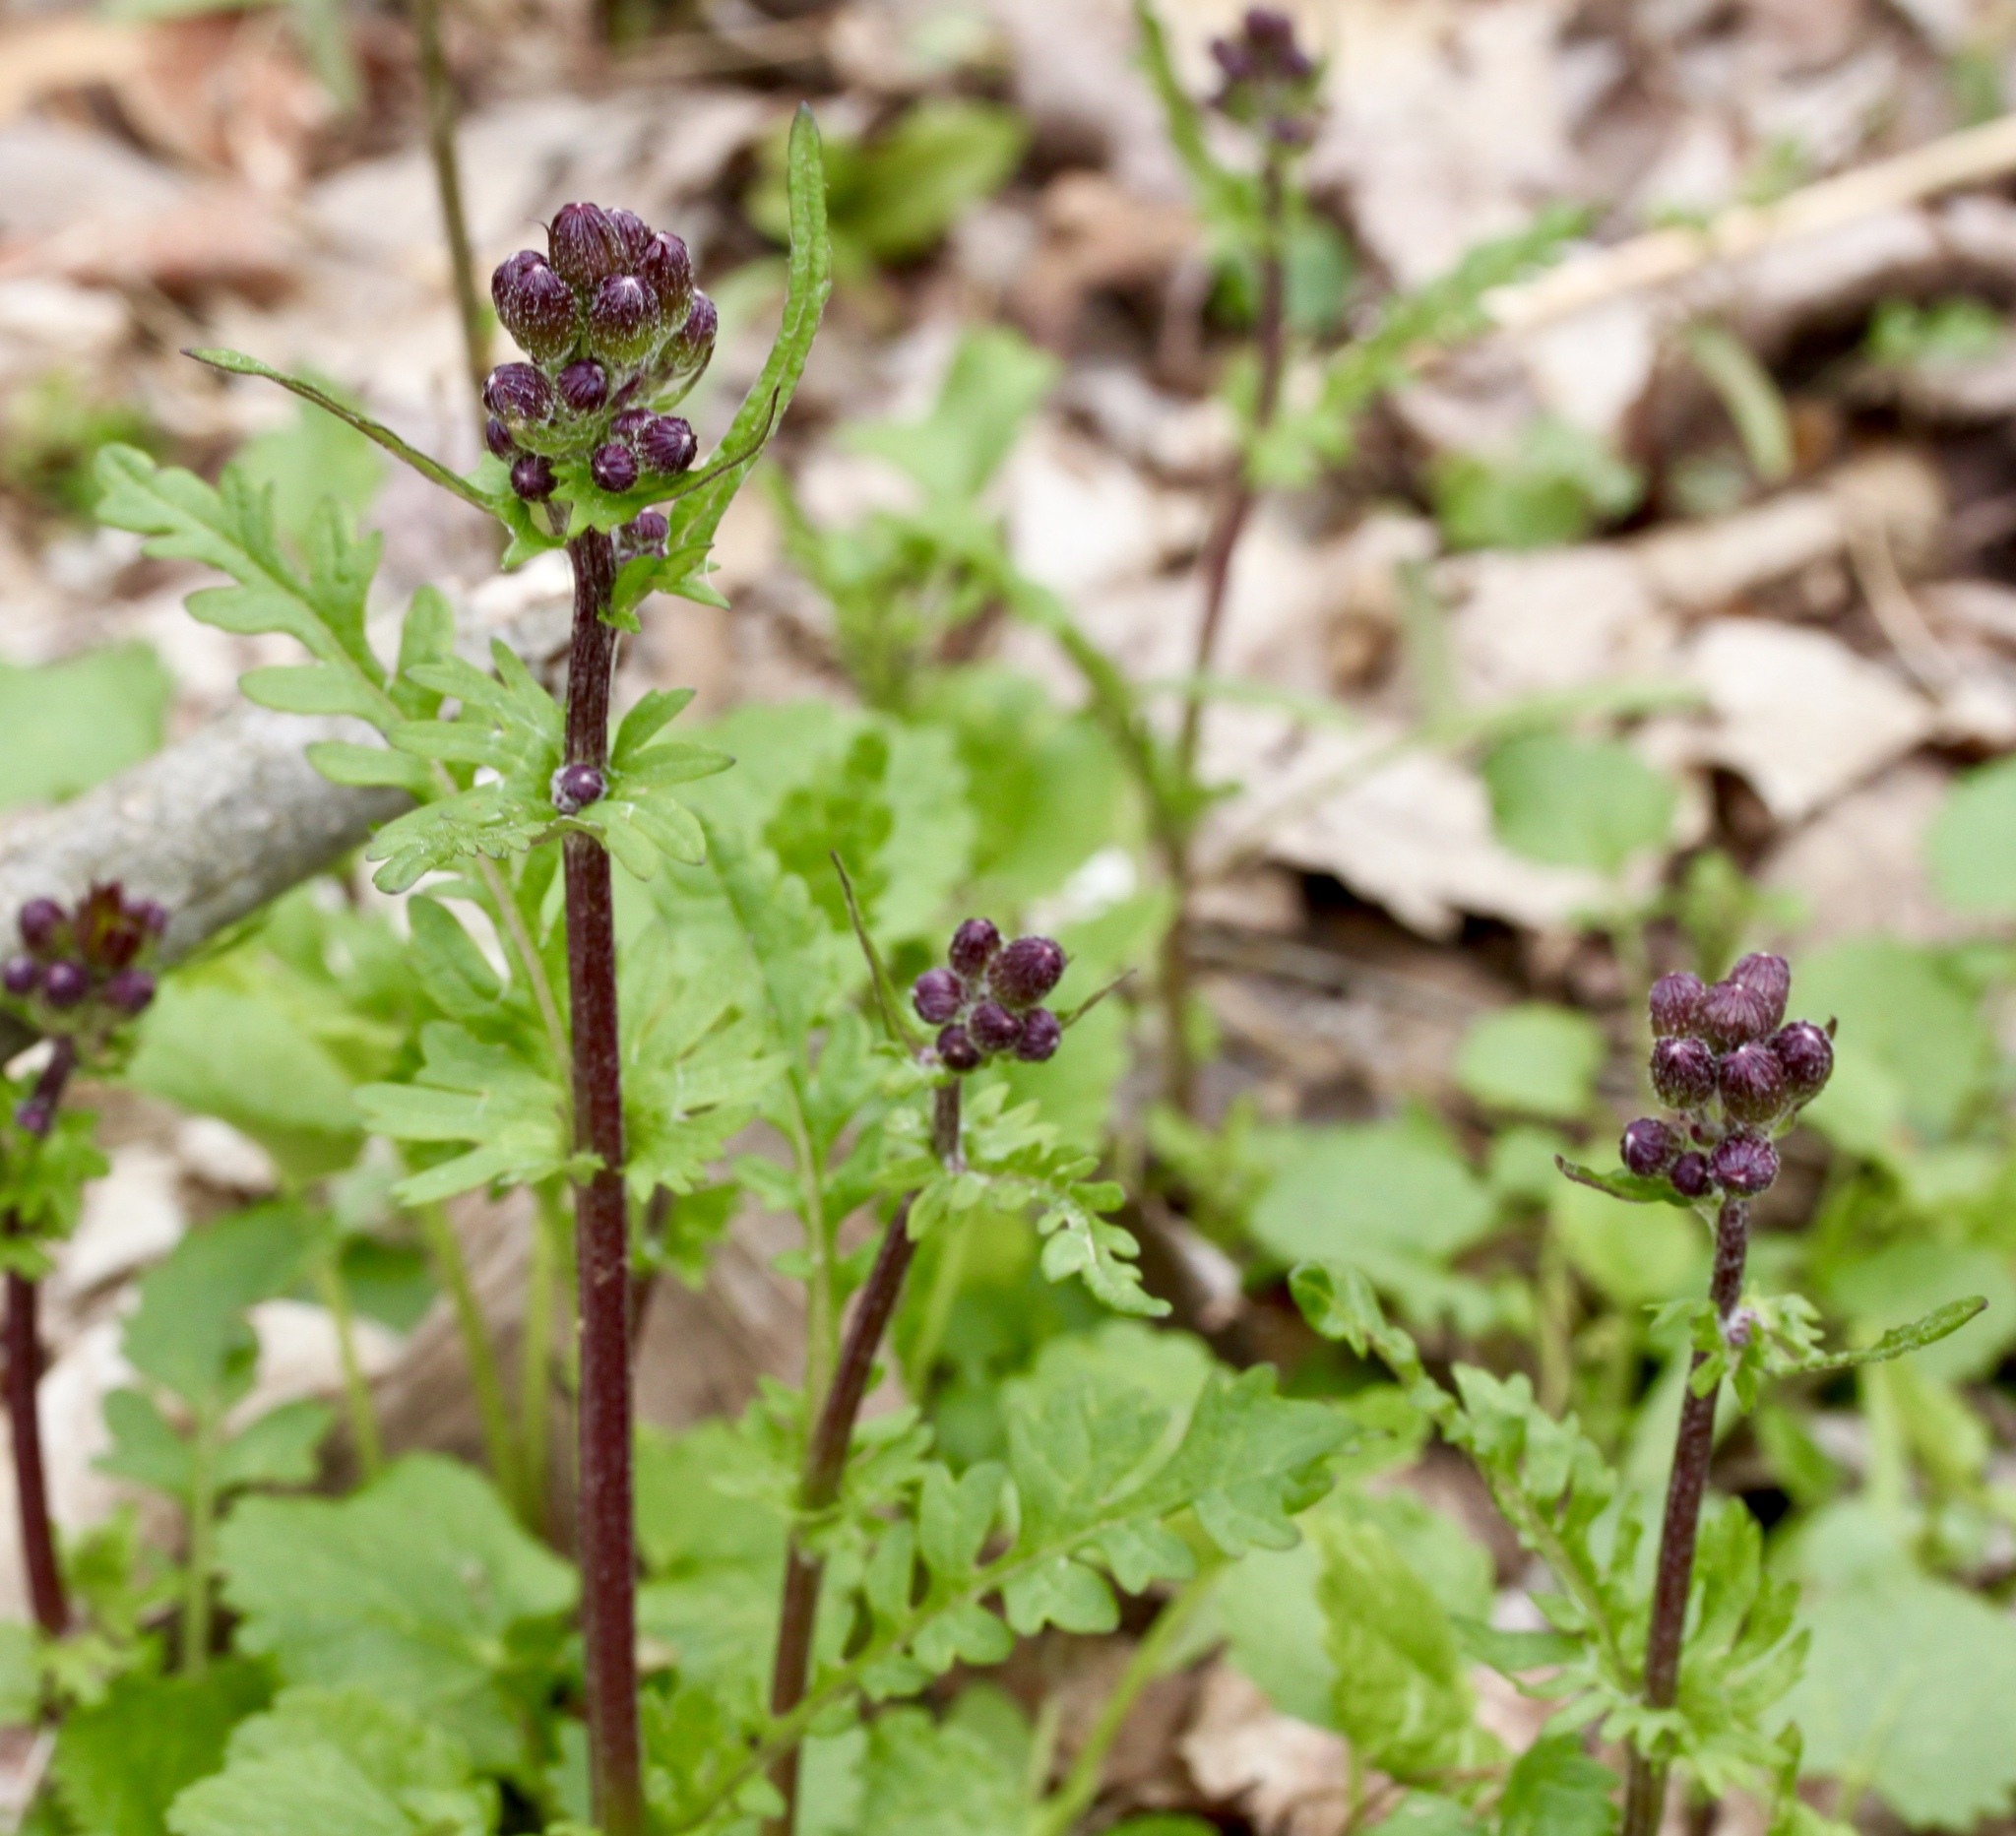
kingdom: Plantae
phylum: Tracheophyta
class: Magnoliopsida
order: Asterales
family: Asteraceae
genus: Packera
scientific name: Packera aurea
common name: Golden groundsel
